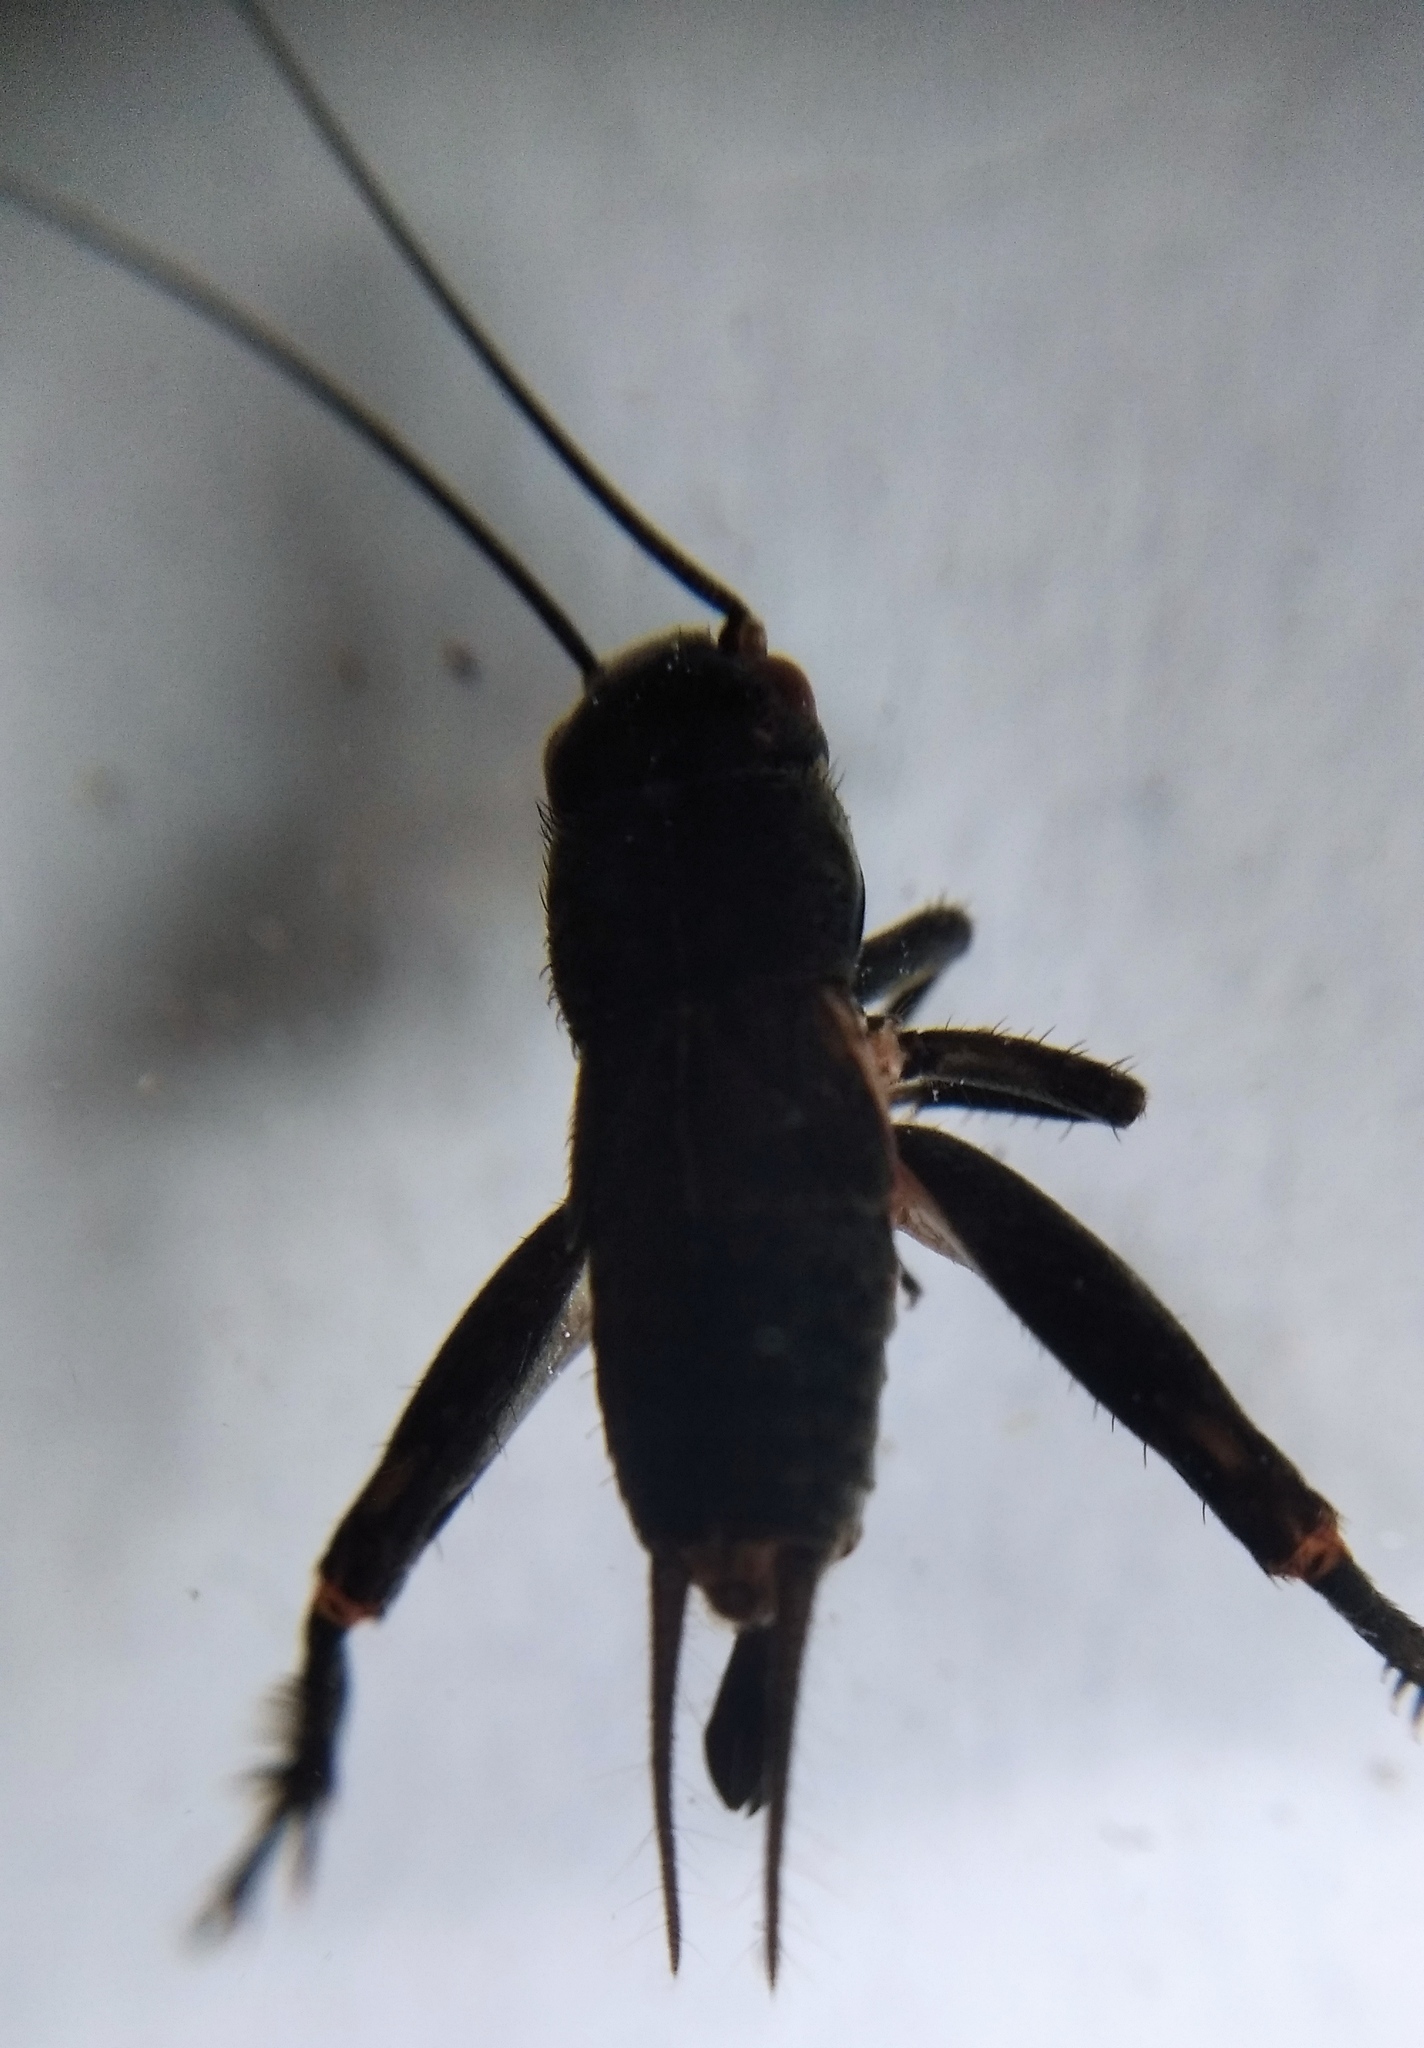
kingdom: Animalia
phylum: Arthropoda
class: Insecta
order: Orthoptera
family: Gryllidae
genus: Modicogryllus
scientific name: Modicogryllus frontalis
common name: Eastern cricket
